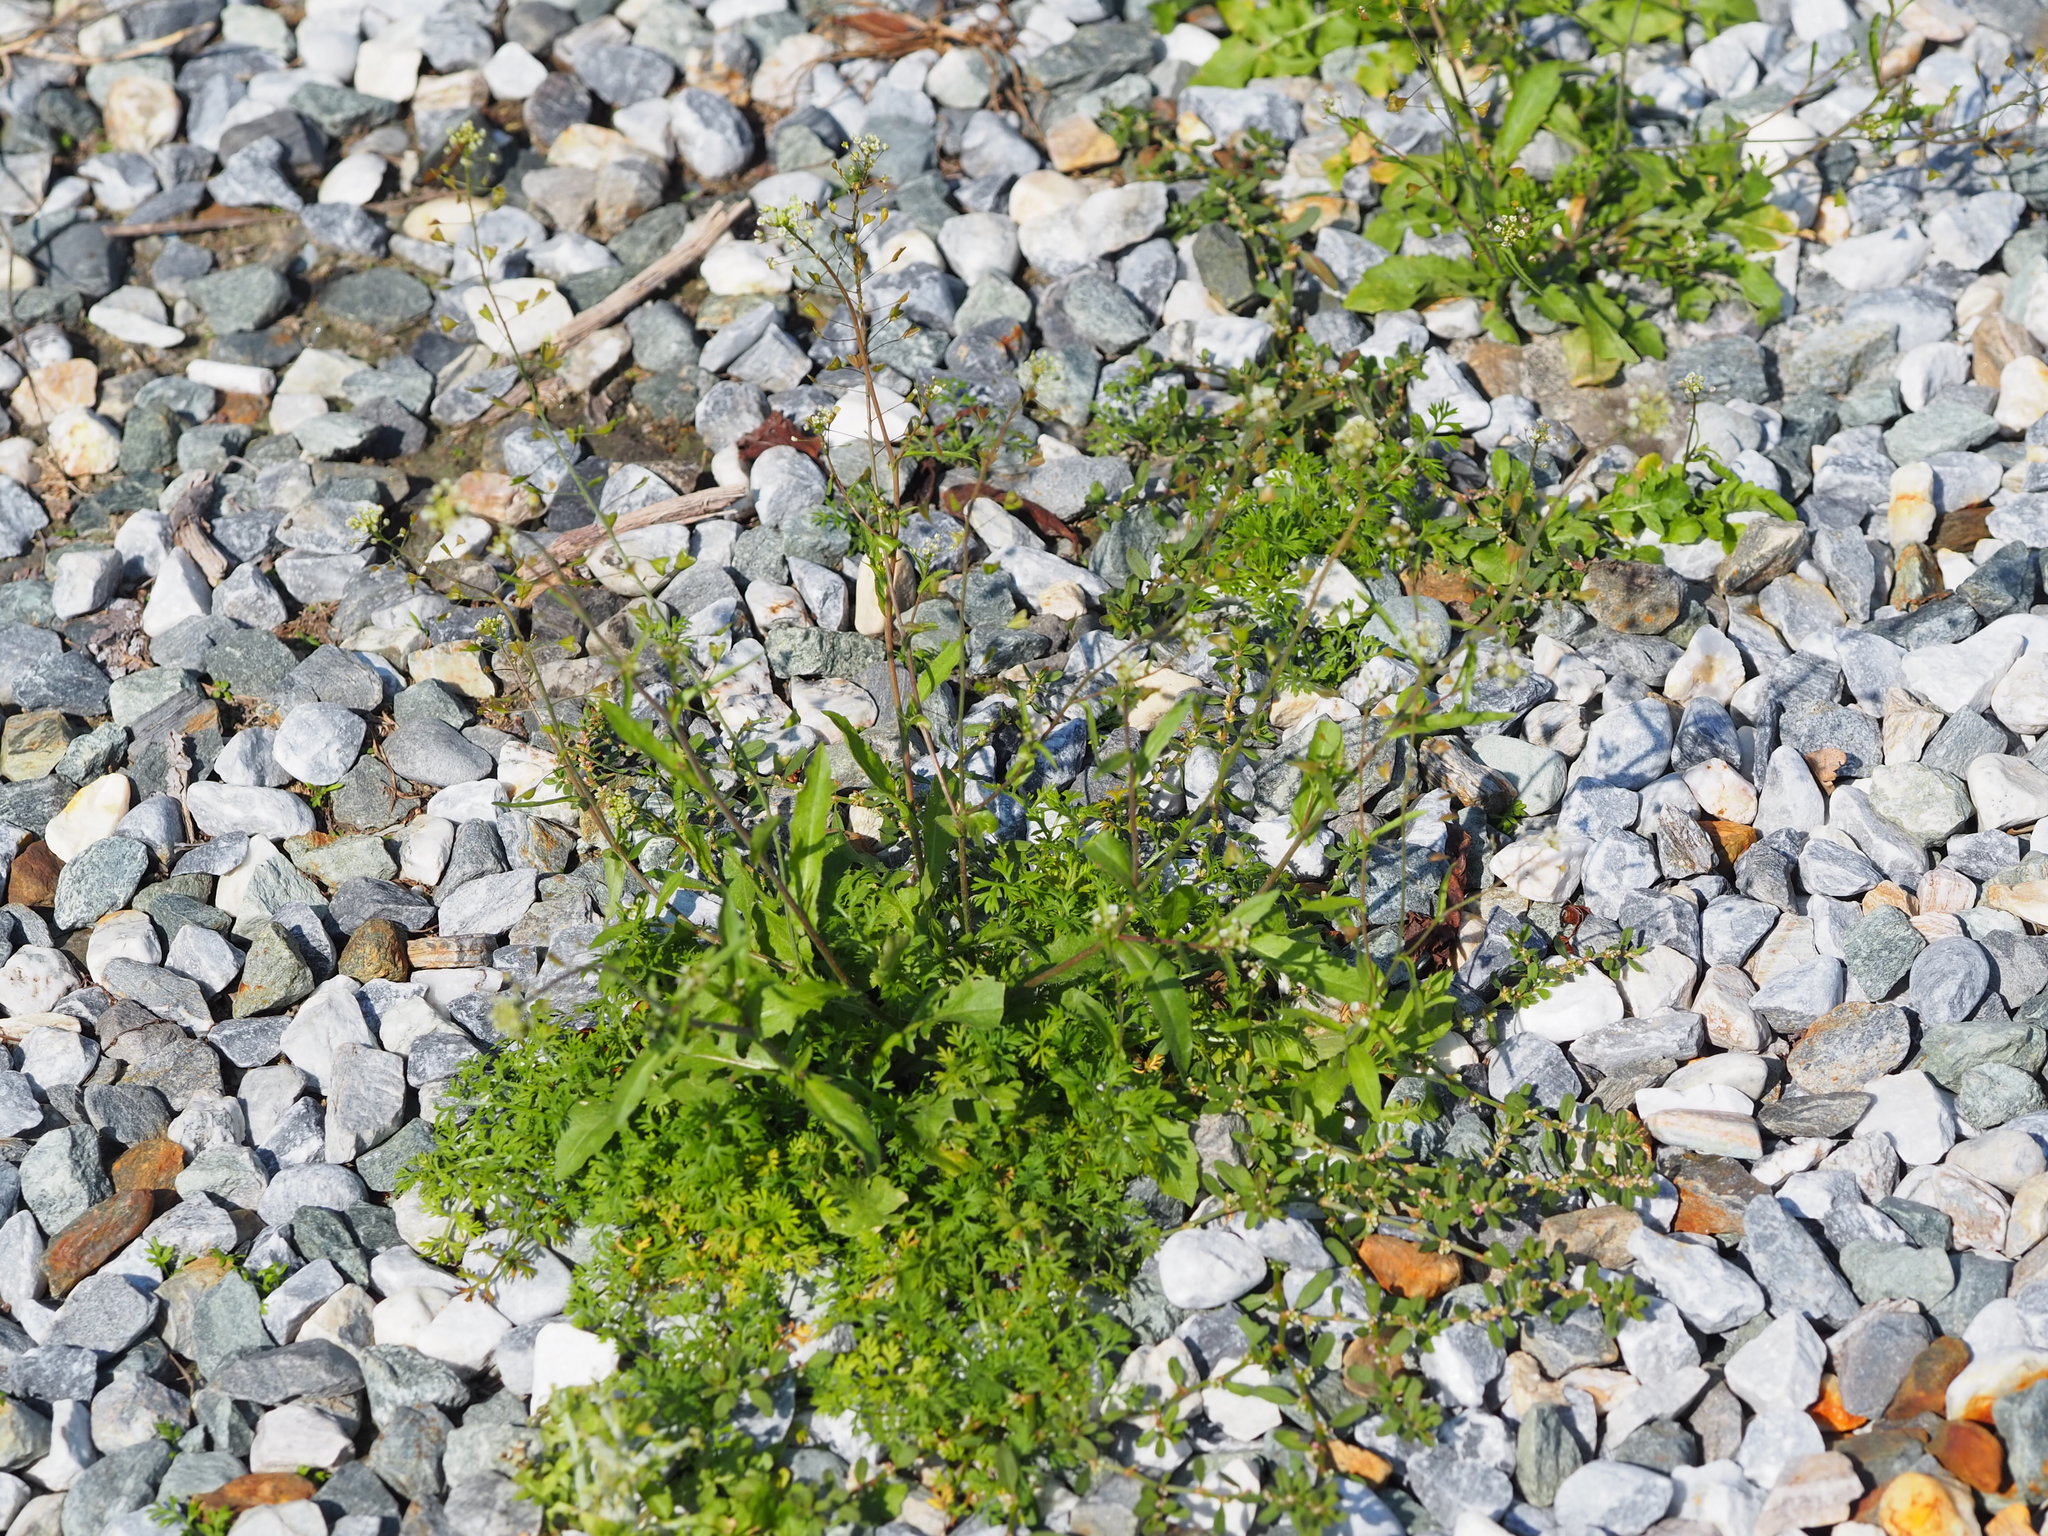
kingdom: Plantae
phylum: Tracheophyta
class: Magnoliopsida
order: Brassicales
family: Brassicaceae
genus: Capsella
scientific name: Capsella bursa-pastoris
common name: Shepherd's purse
